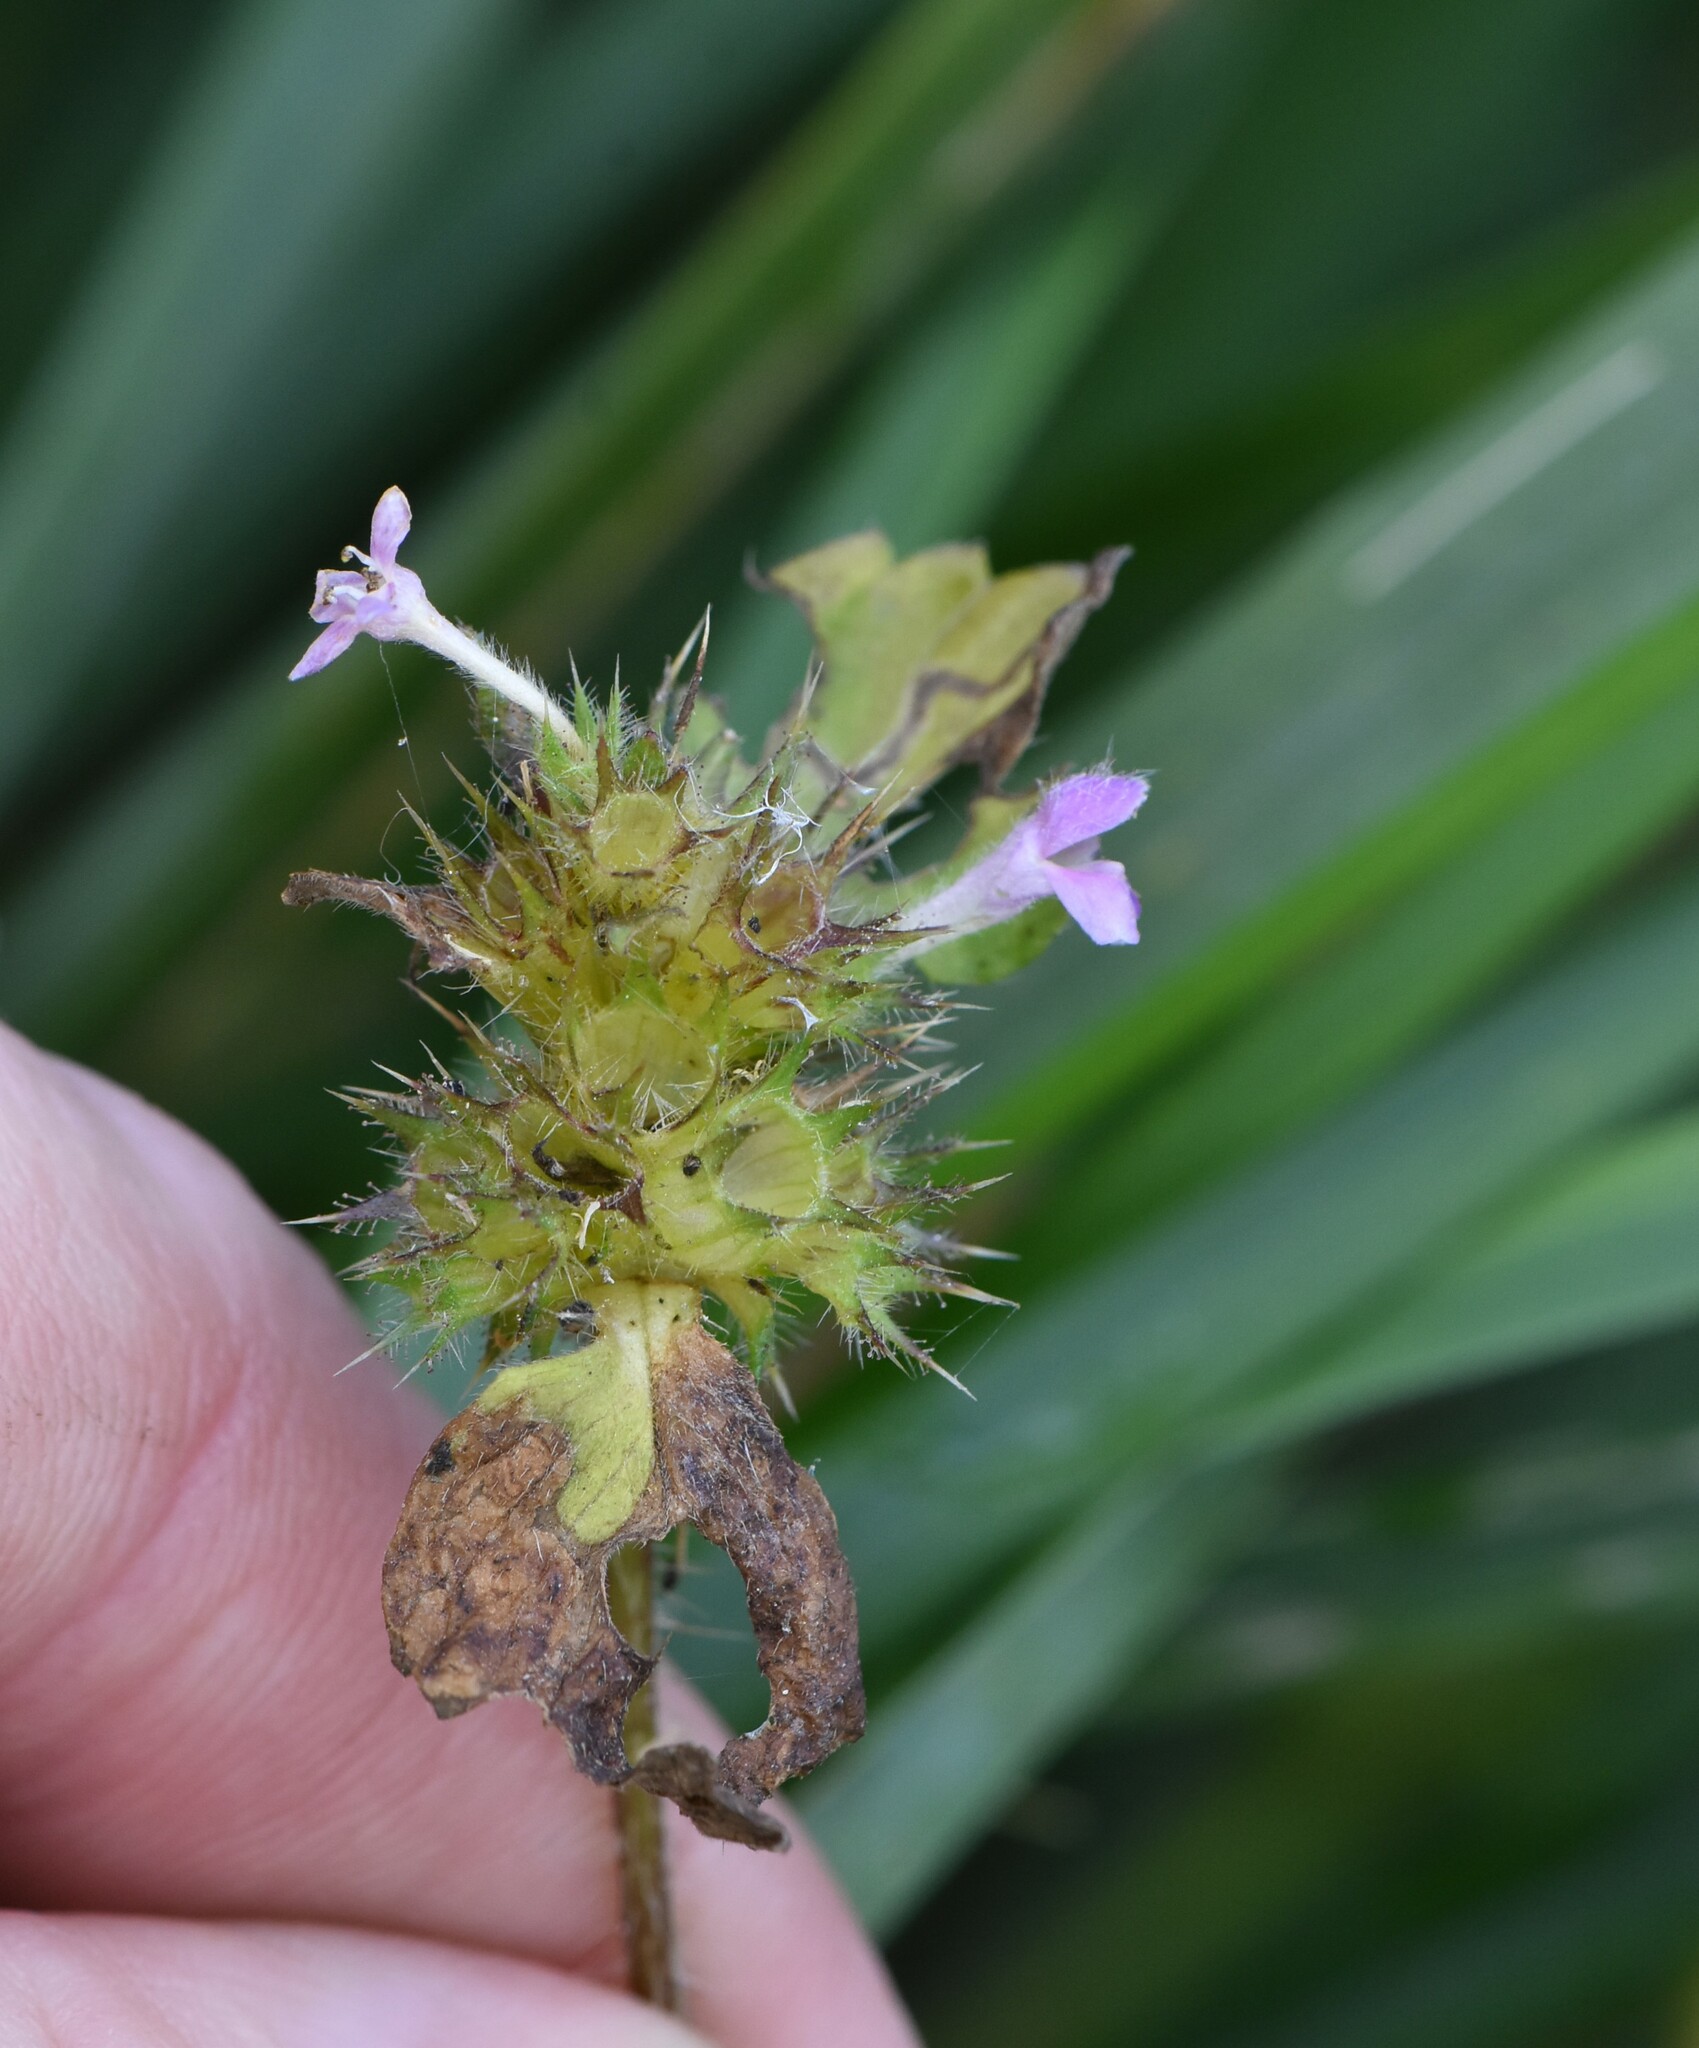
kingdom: Plantae
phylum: Tracheophyta
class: Magnoliopsida
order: Lamiales
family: Lamiaceae
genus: Galeopsis
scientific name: Galeopsis bifida
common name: Bifid hemp-nettle
